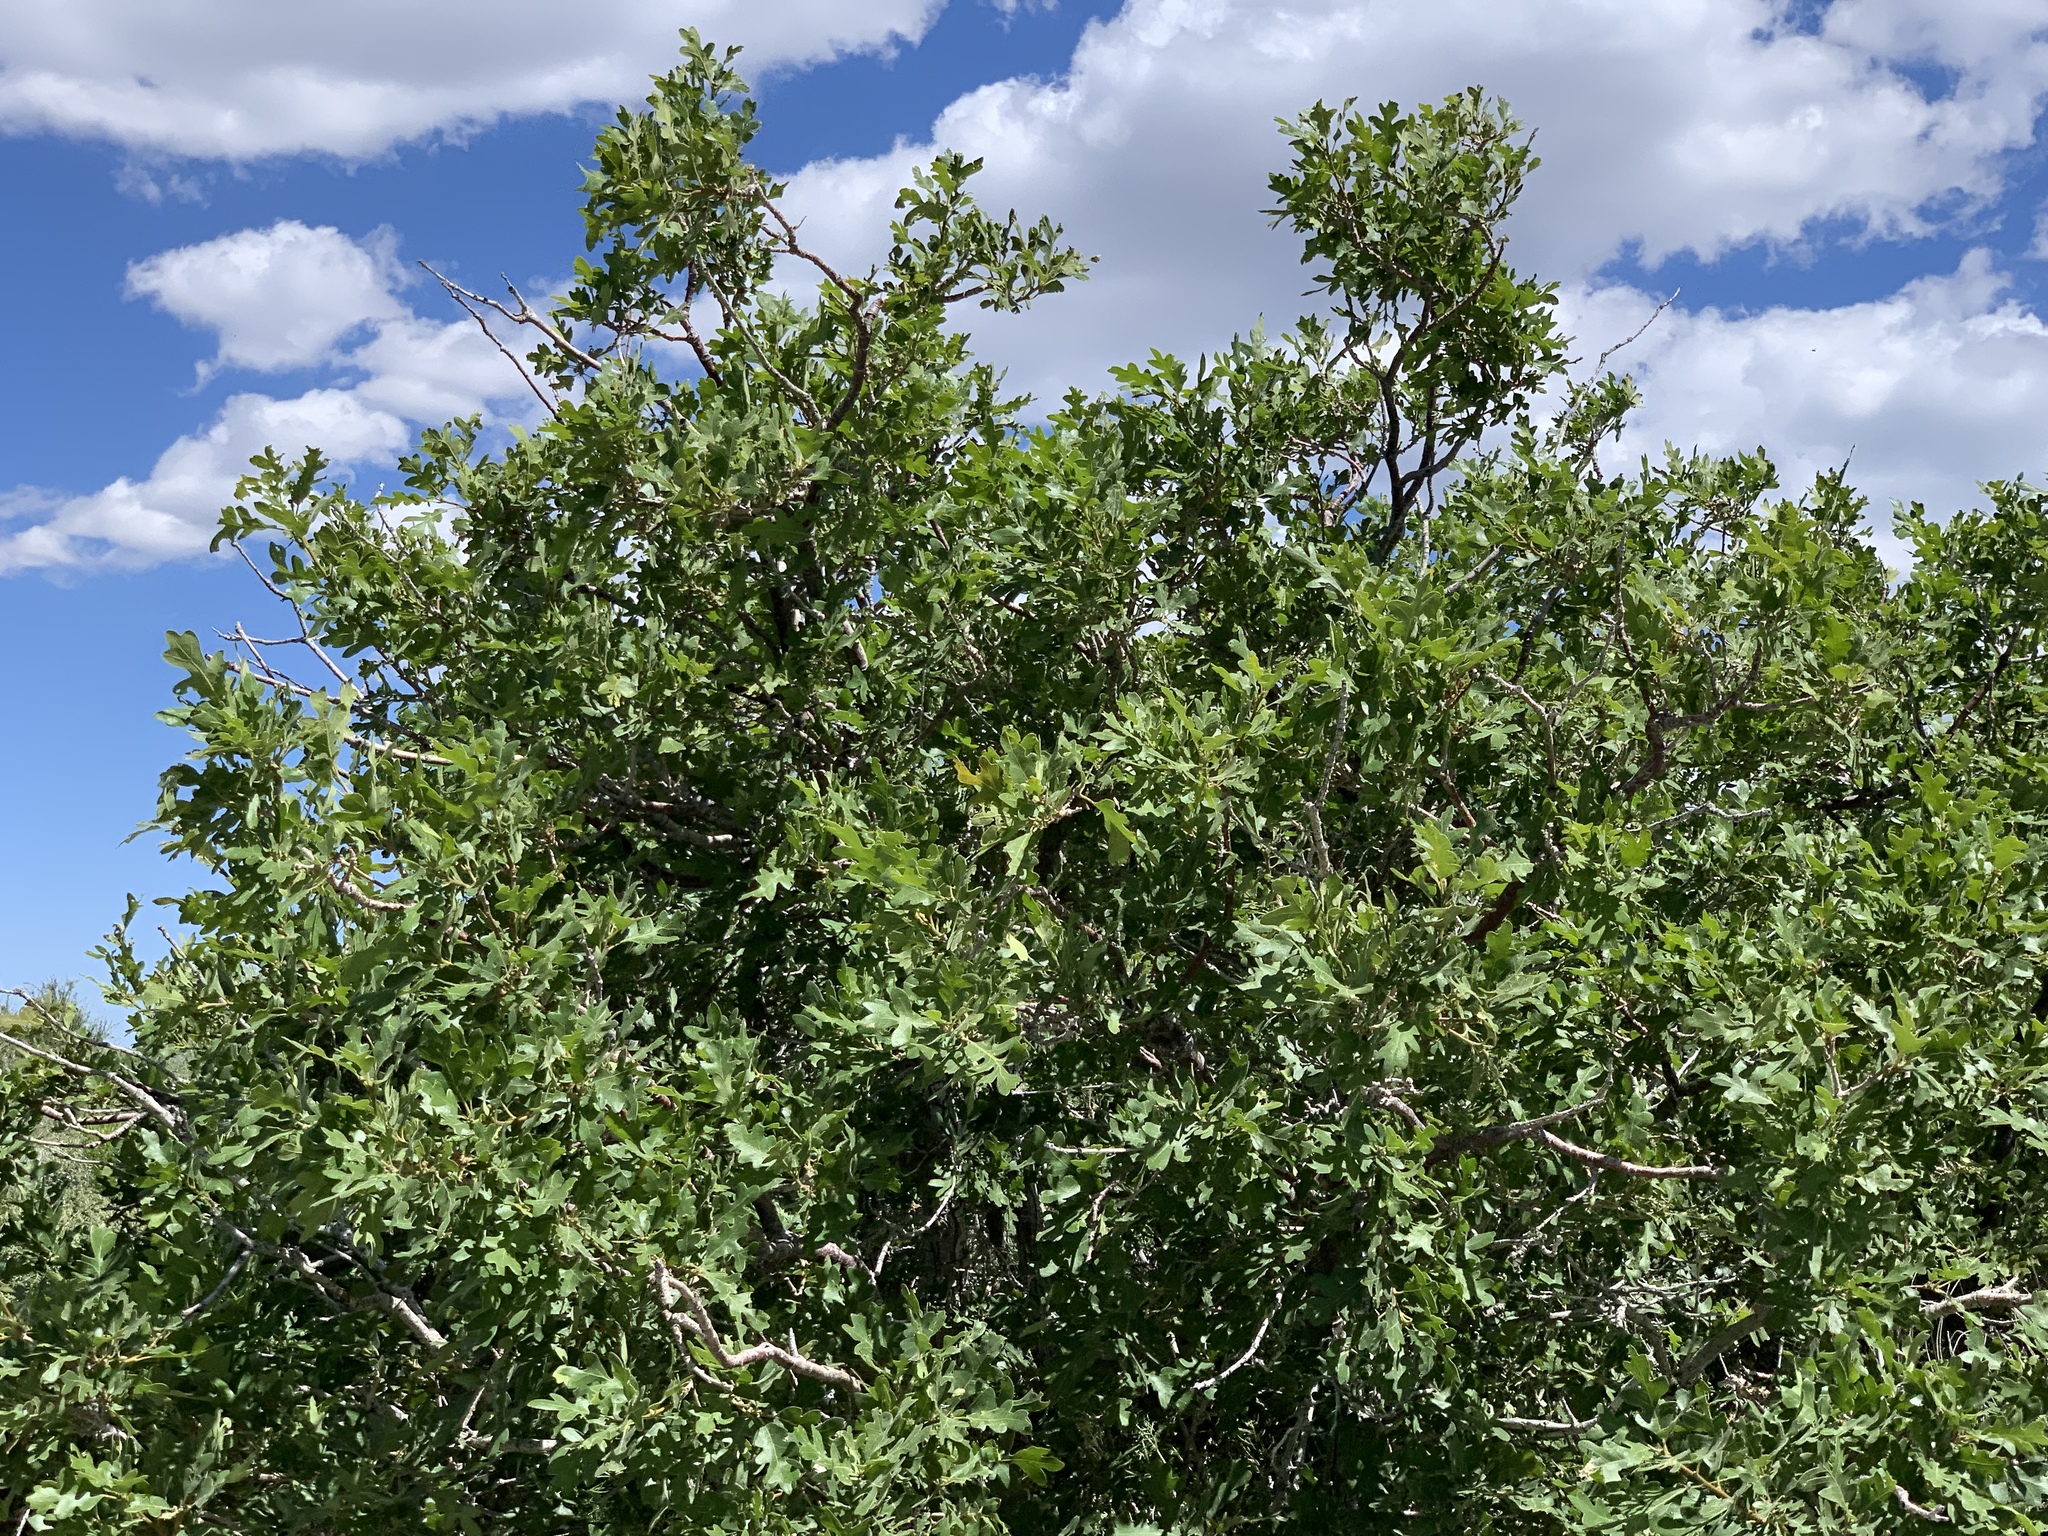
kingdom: Plantae
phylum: Tracheophyta
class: Magnoliopsida
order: Fagales
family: Fagaceae
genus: Quercus
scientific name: Quercus gambelii
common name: Gambel oak
